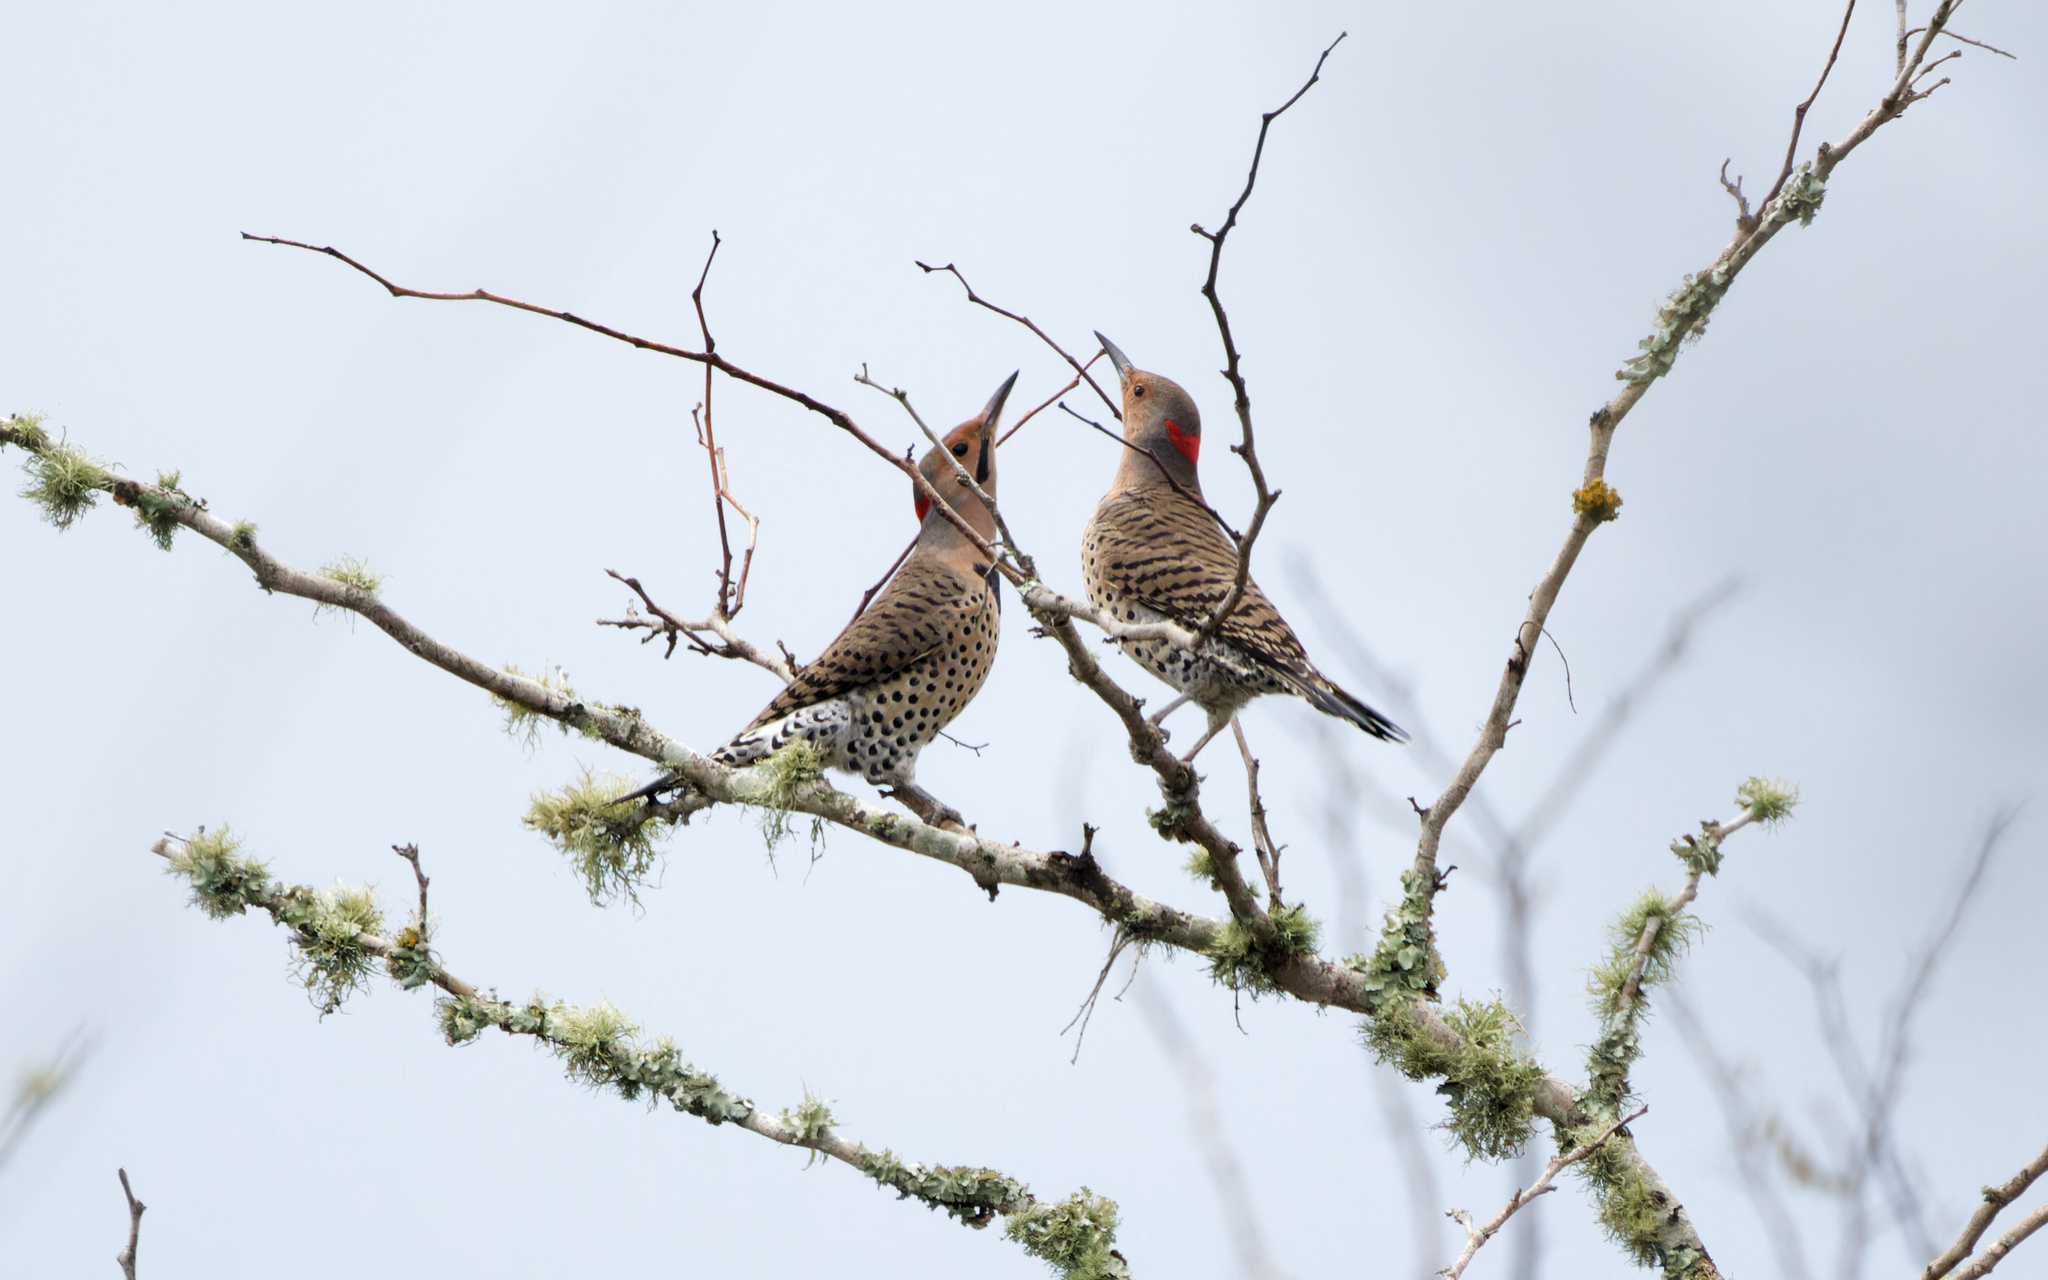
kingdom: Animalia
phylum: Chordata
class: Aves
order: Piciformes
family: Picidae
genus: Colaptes
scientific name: Colaptes auratus
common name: Northern flicker
